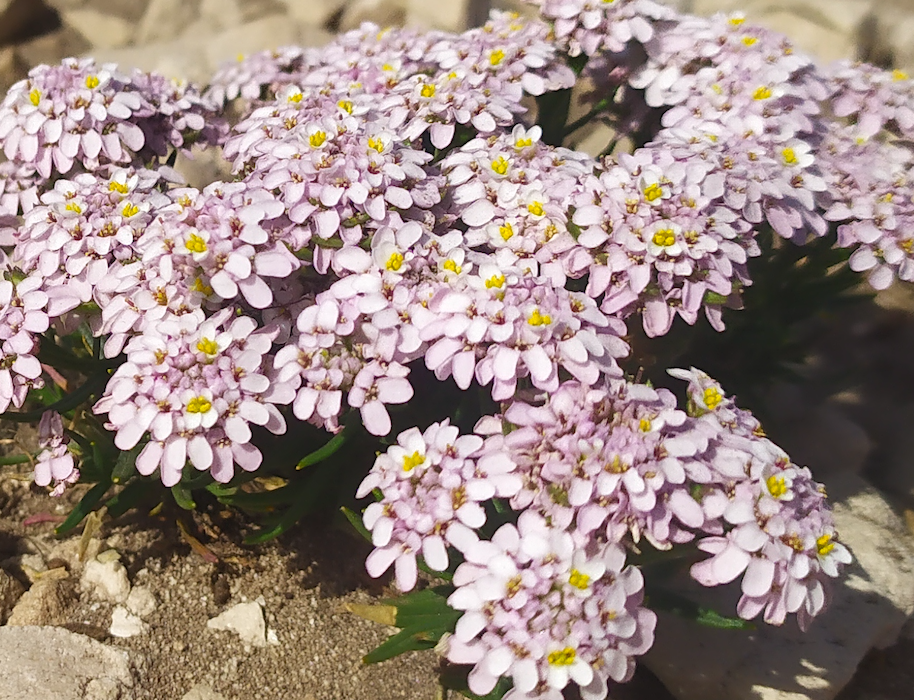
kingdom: Plantae
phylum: Tracheophyta
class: Magnoliopsida
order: Brassicales
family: Brassicaceae
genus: Iberis
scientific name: Iberis saxatilis
